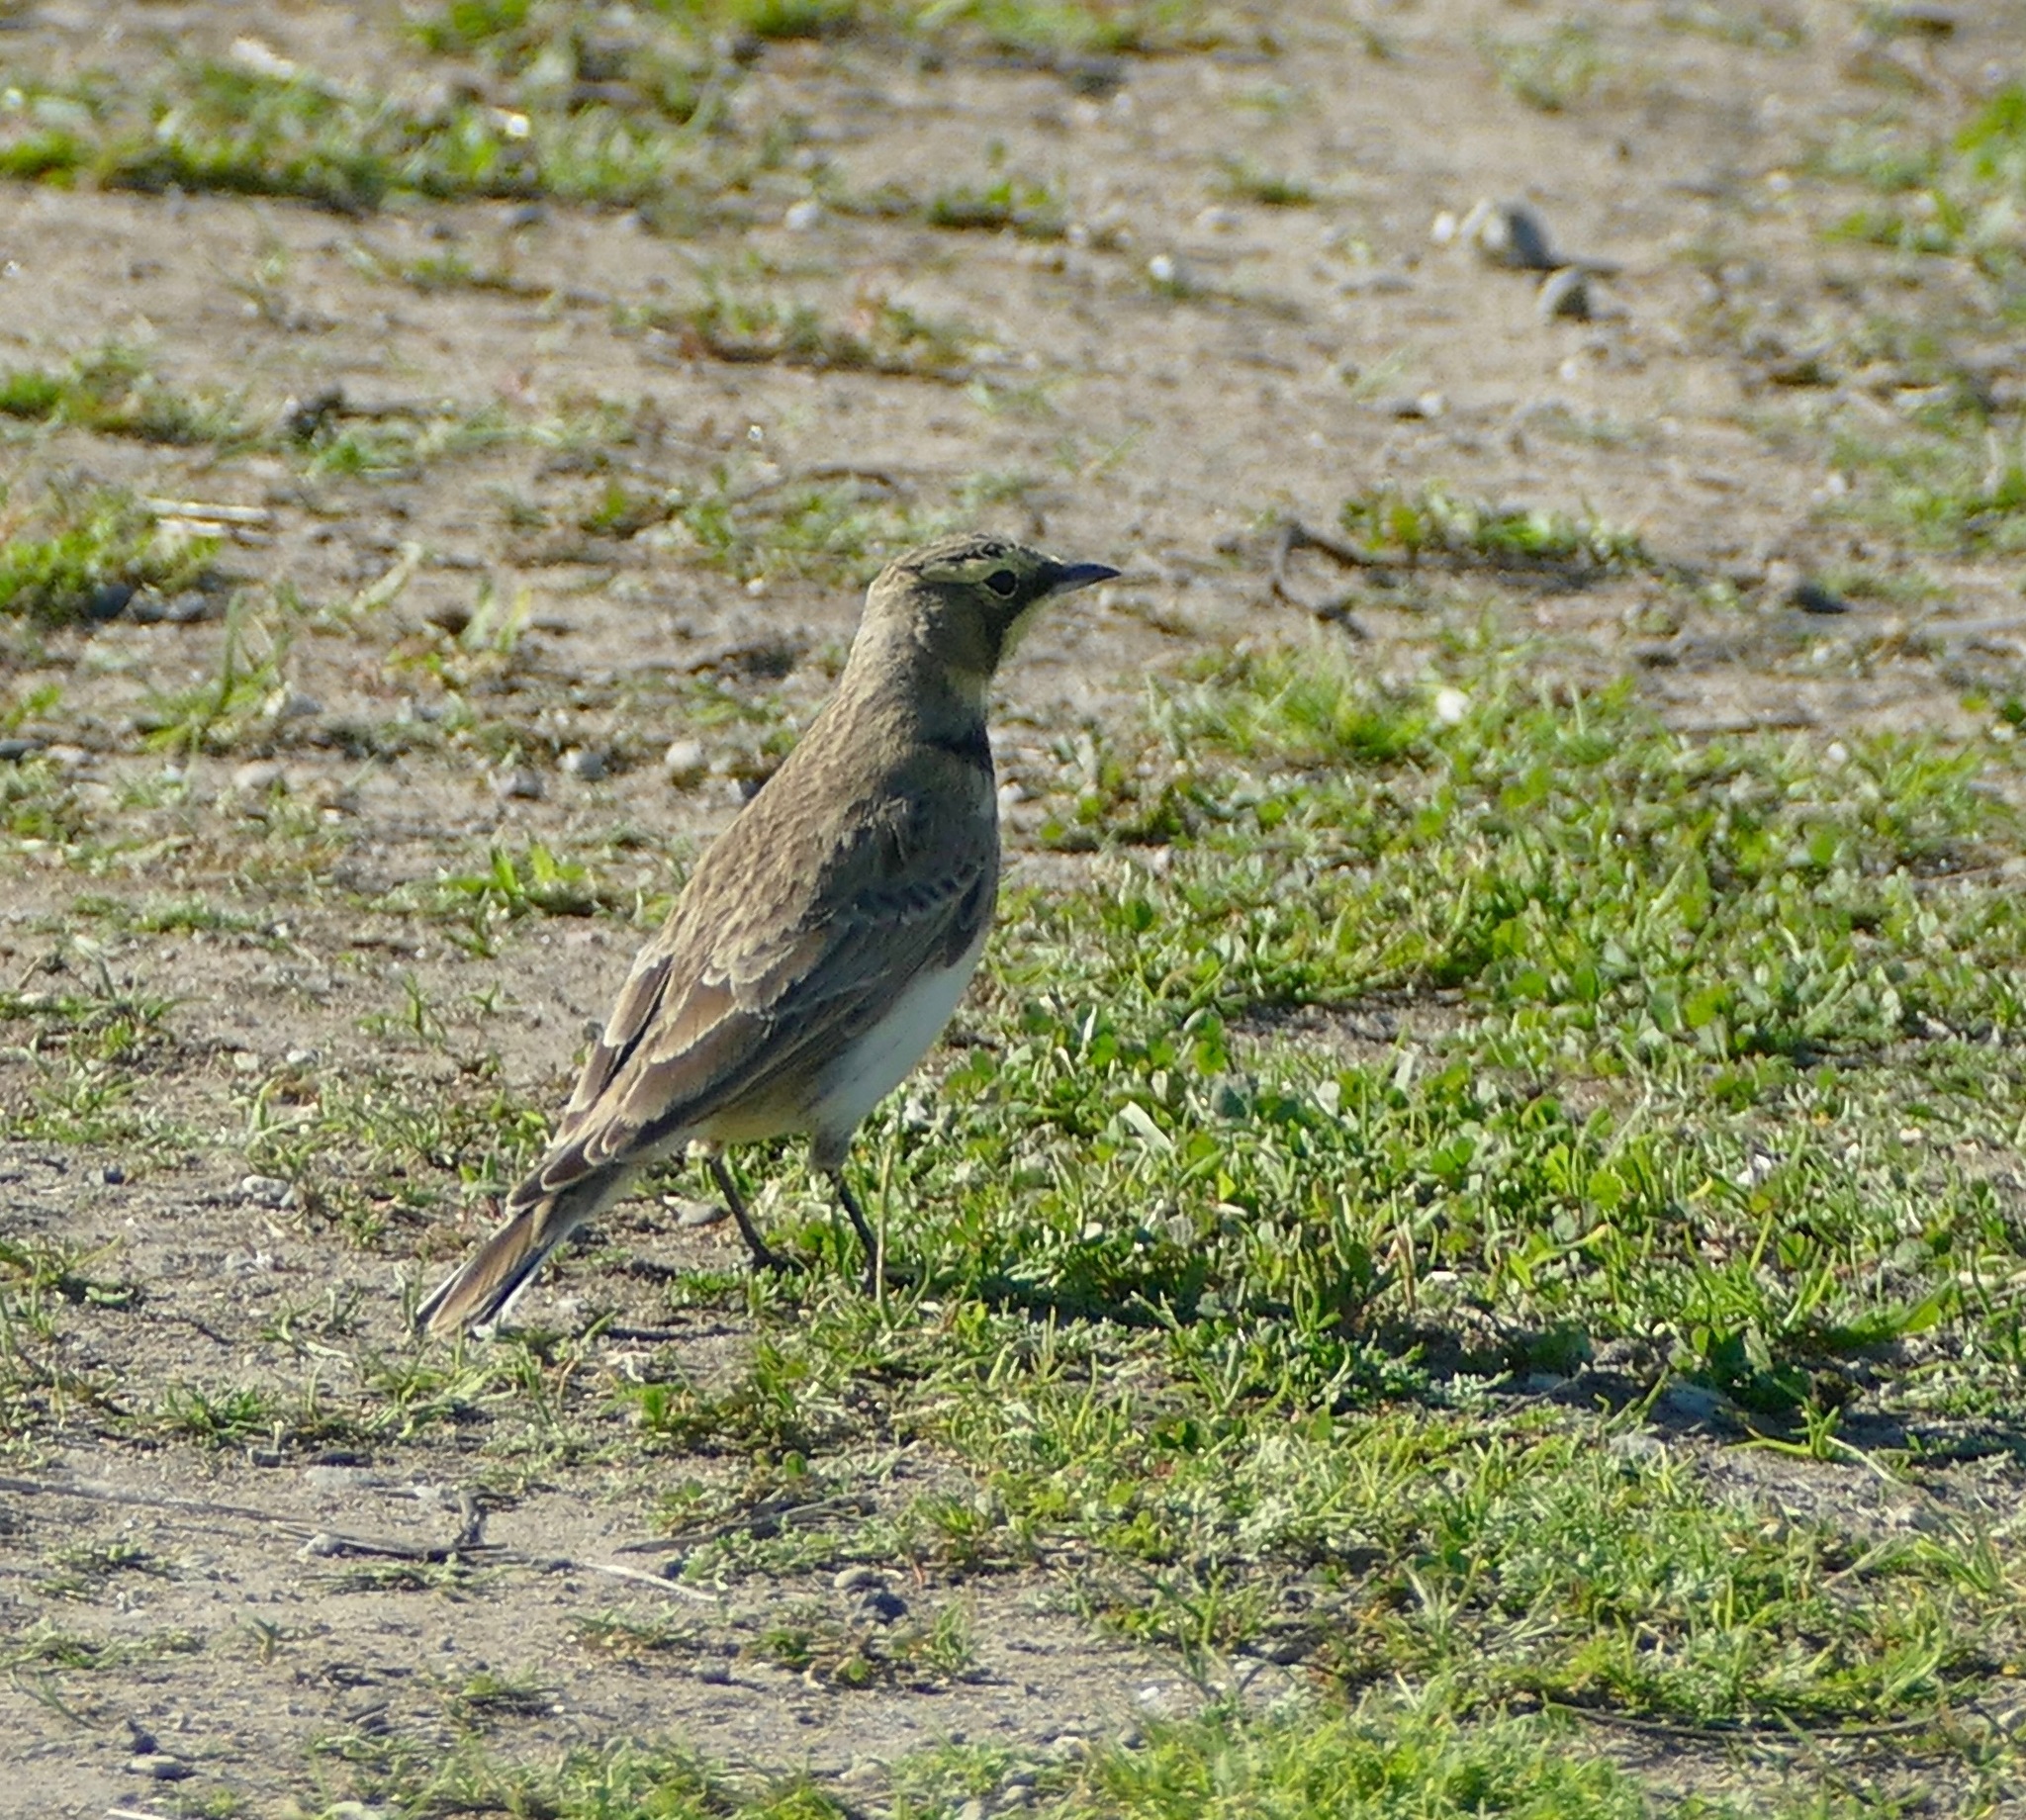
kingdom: Animalia
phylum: Chordata
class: Aves
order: Passeriformes
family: Alaudidae
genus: Eremophila
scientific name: Eremophila alpestris
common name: Horned lark
